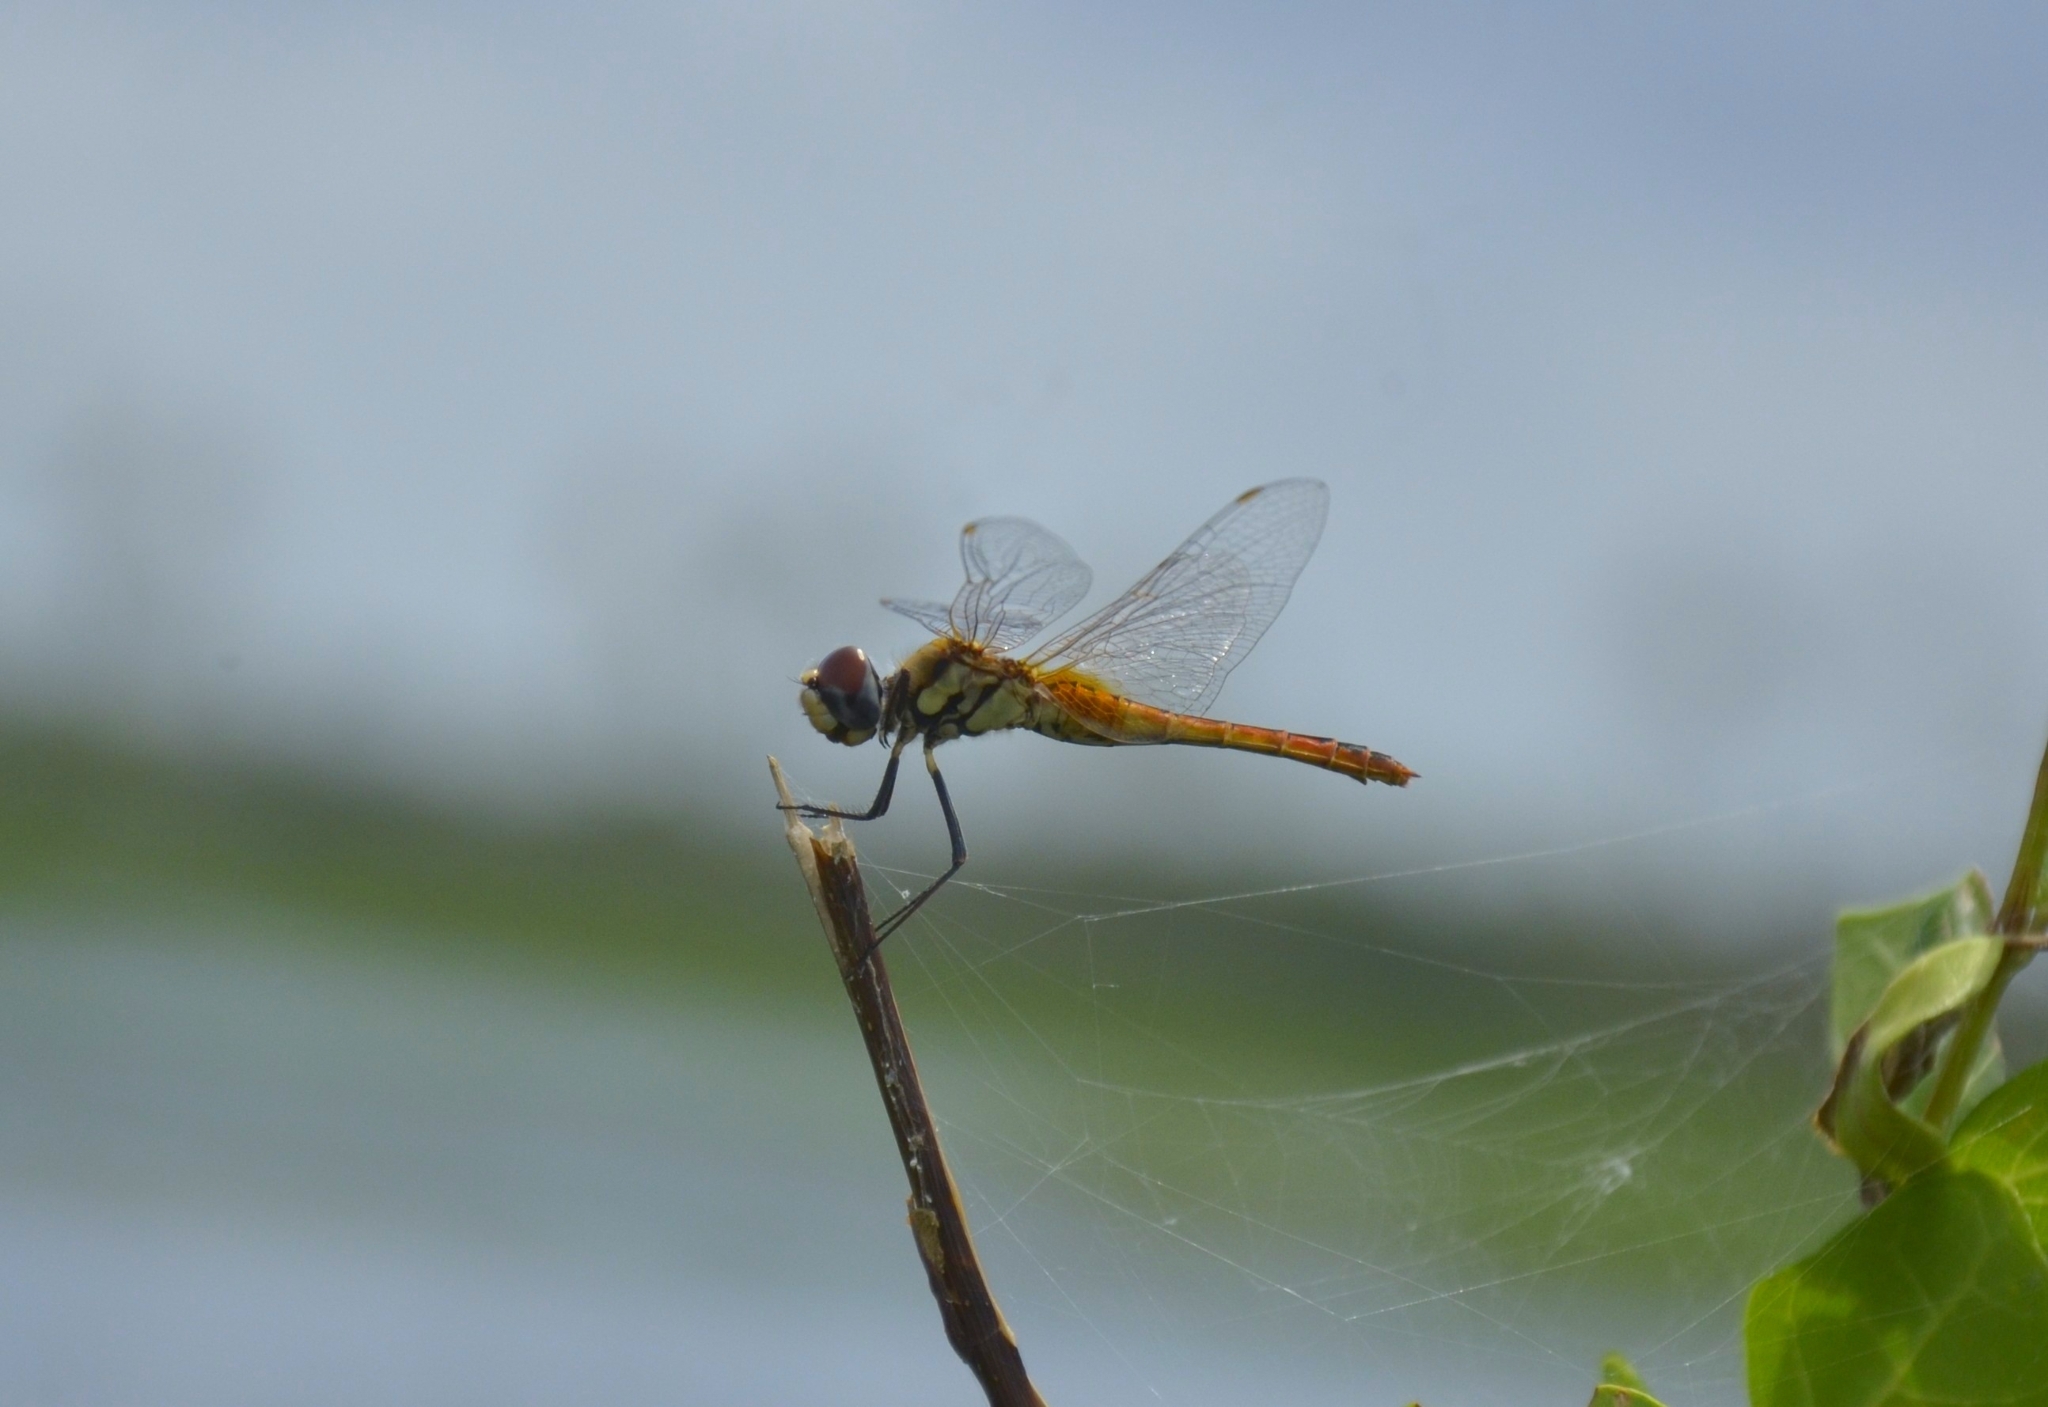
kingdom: Animalia
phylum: Arthropoda
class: Insecta
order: Odonata
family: Libellulidae
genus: Macrodiplax
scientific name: Macrodiplax cora
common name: Coastal glider
